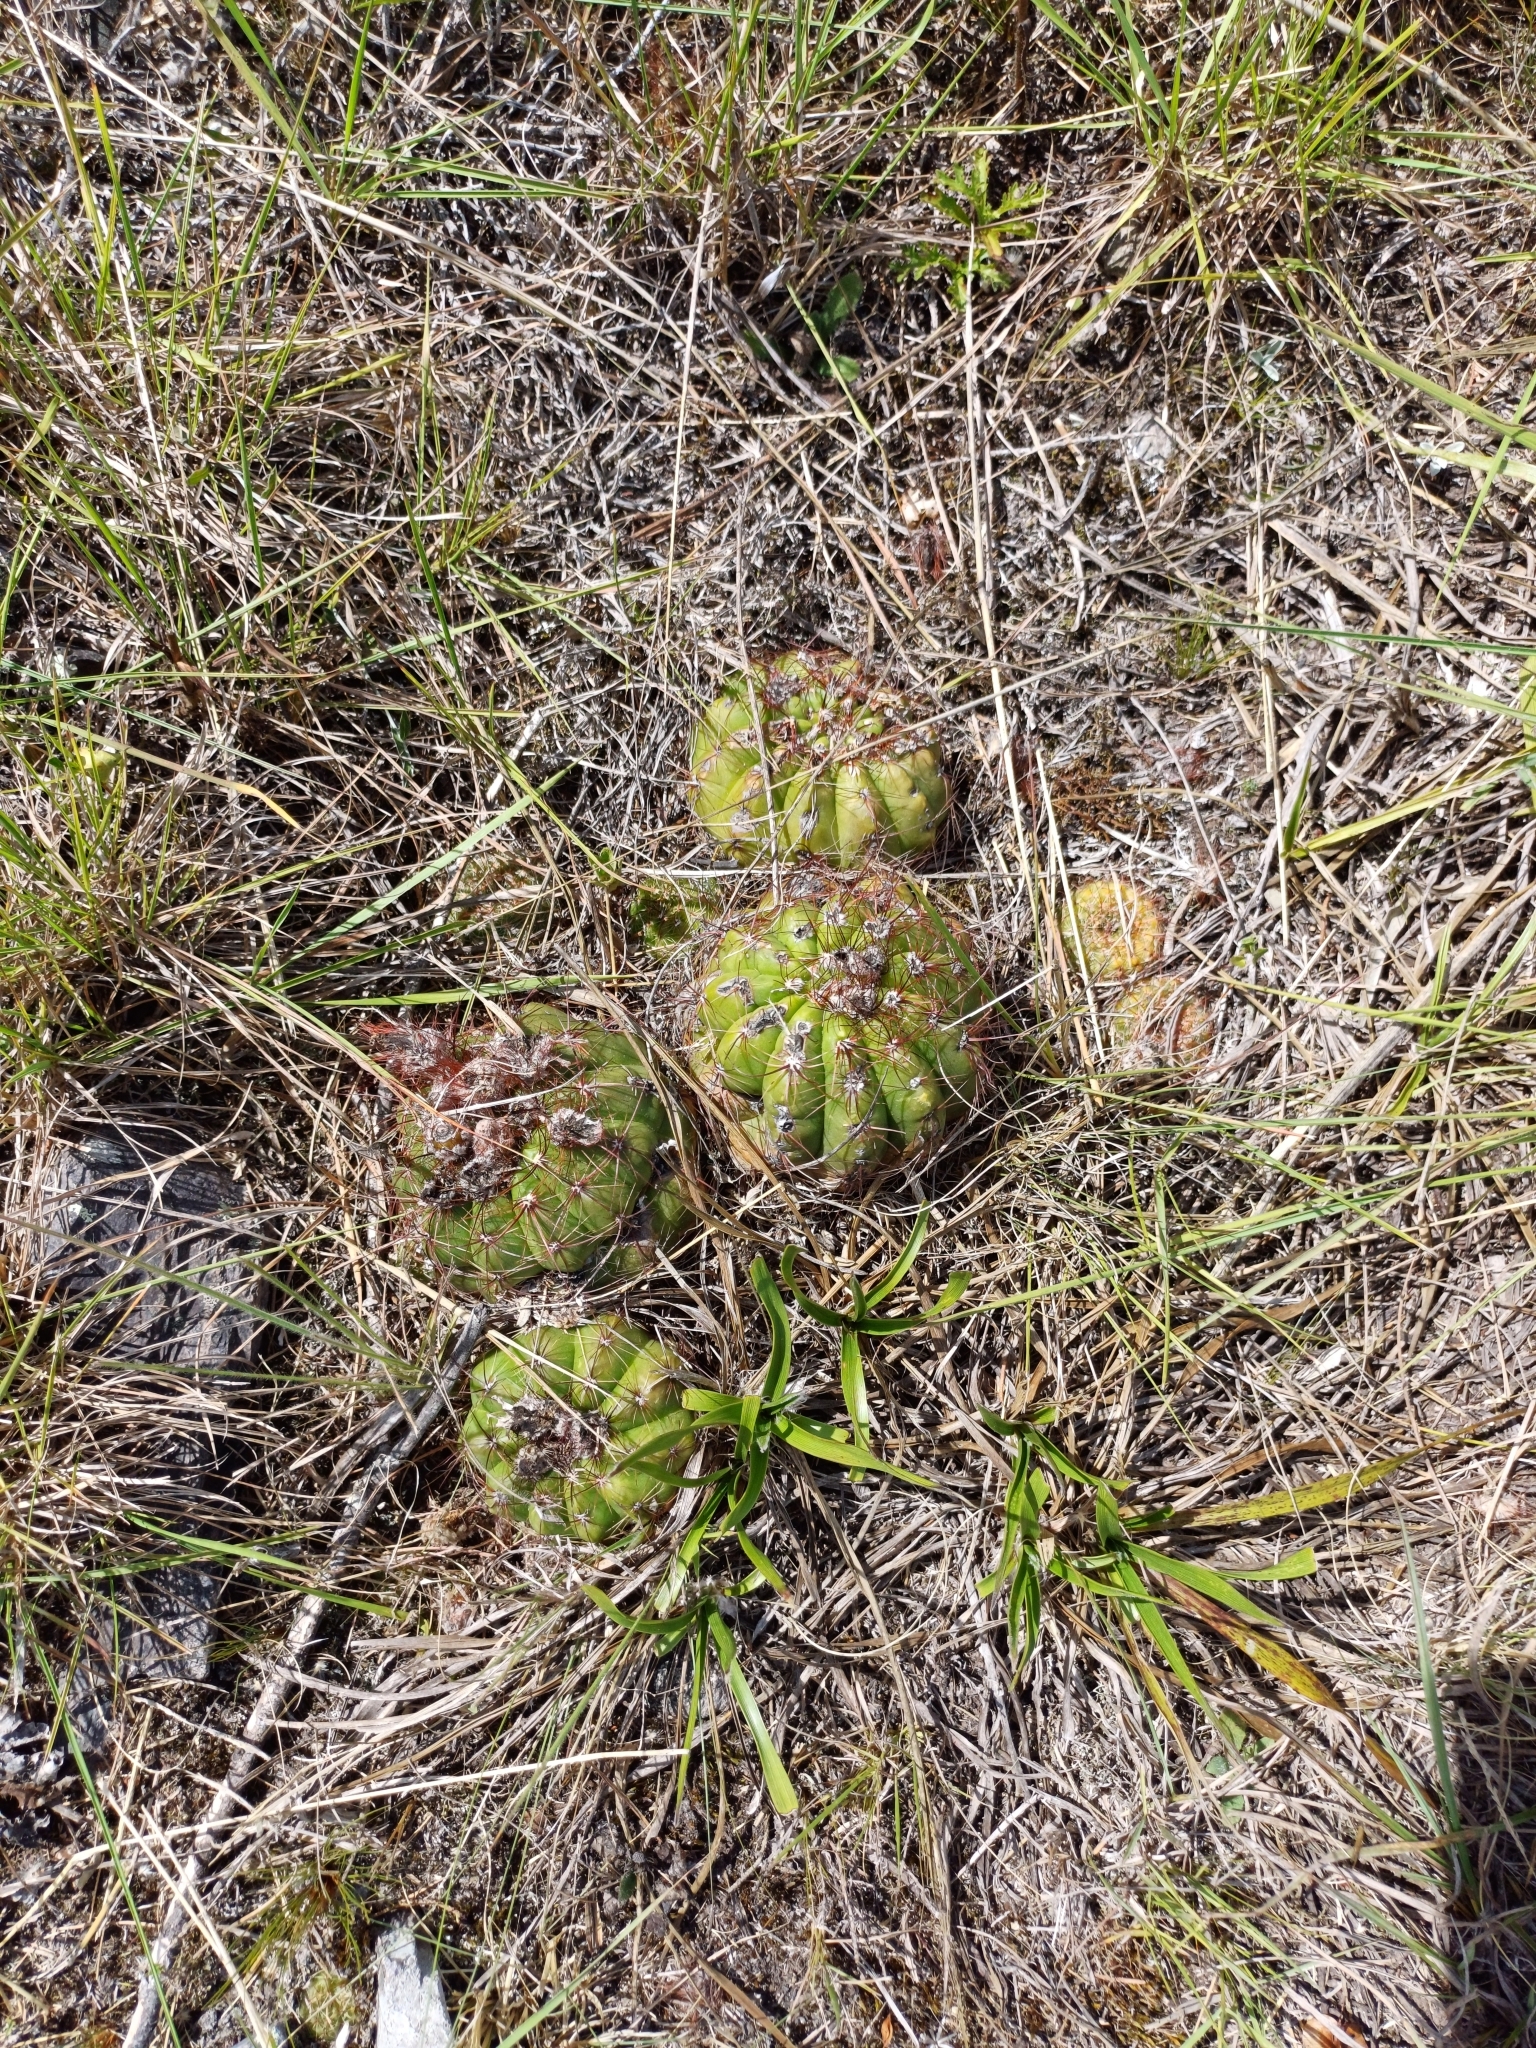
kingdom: Plantae
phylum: Tracheophyta
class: Magnoliopsida
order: Caryophyllales
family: Cactaceae
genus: Parodia
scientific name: Parodia ottonis
